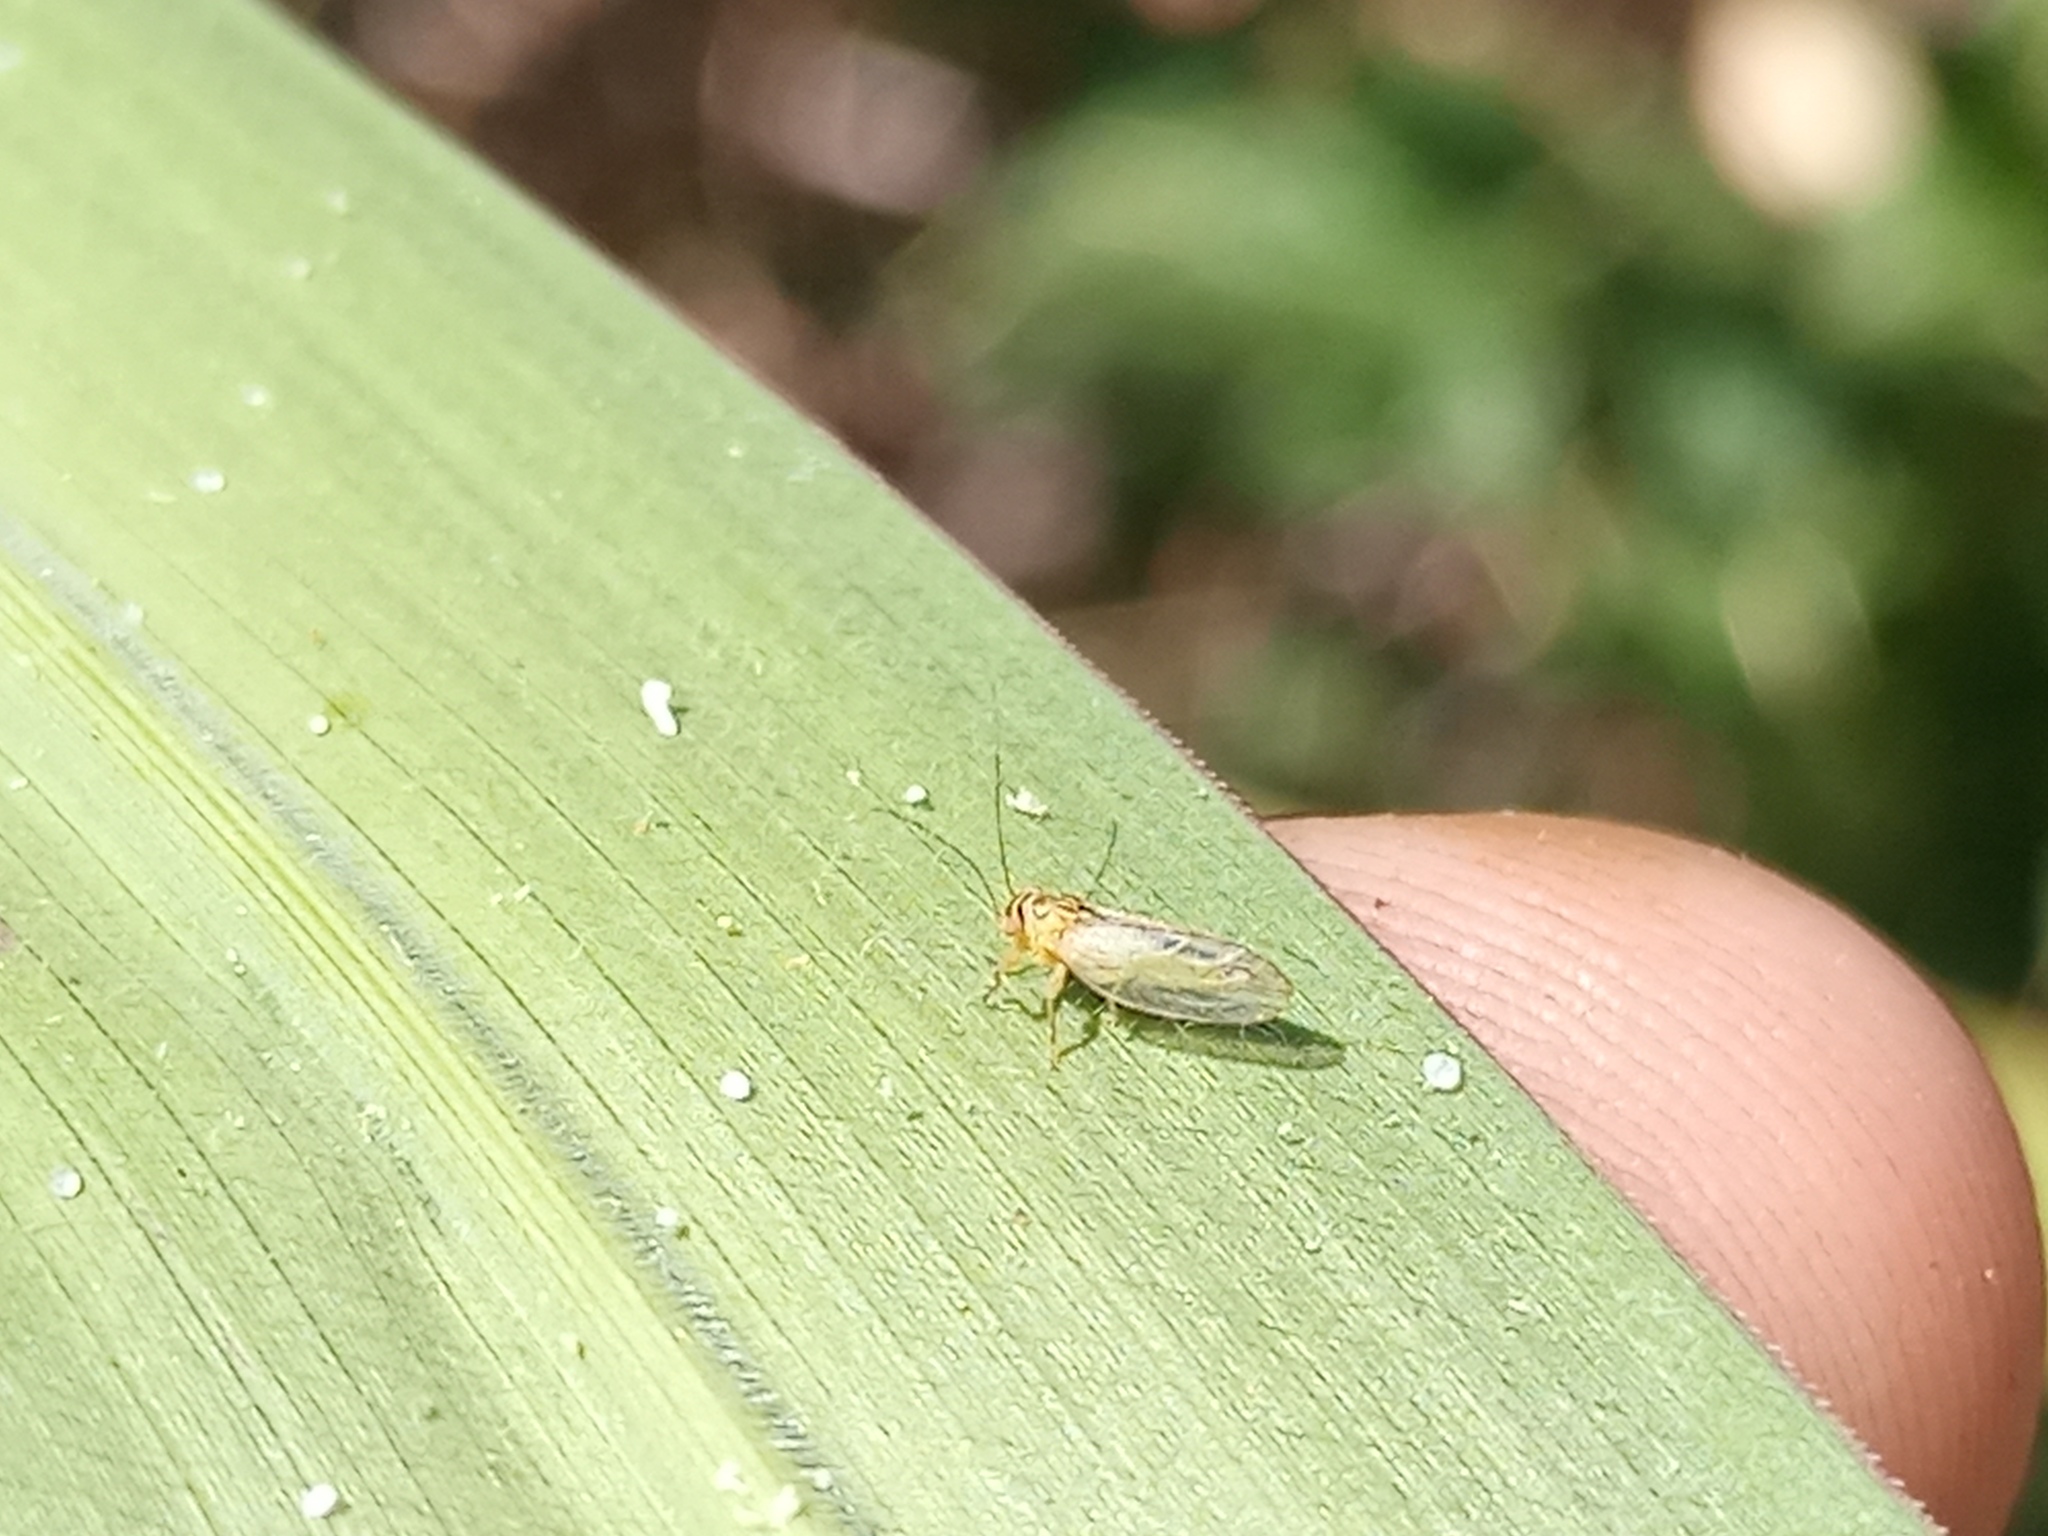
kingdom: Animalia
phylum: Arthropoda
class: Insecta
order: Hemiptera
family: Psyllidae
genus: Platycorypha
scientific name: Platycorypha nigrivirga
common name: Tipu psyllid
